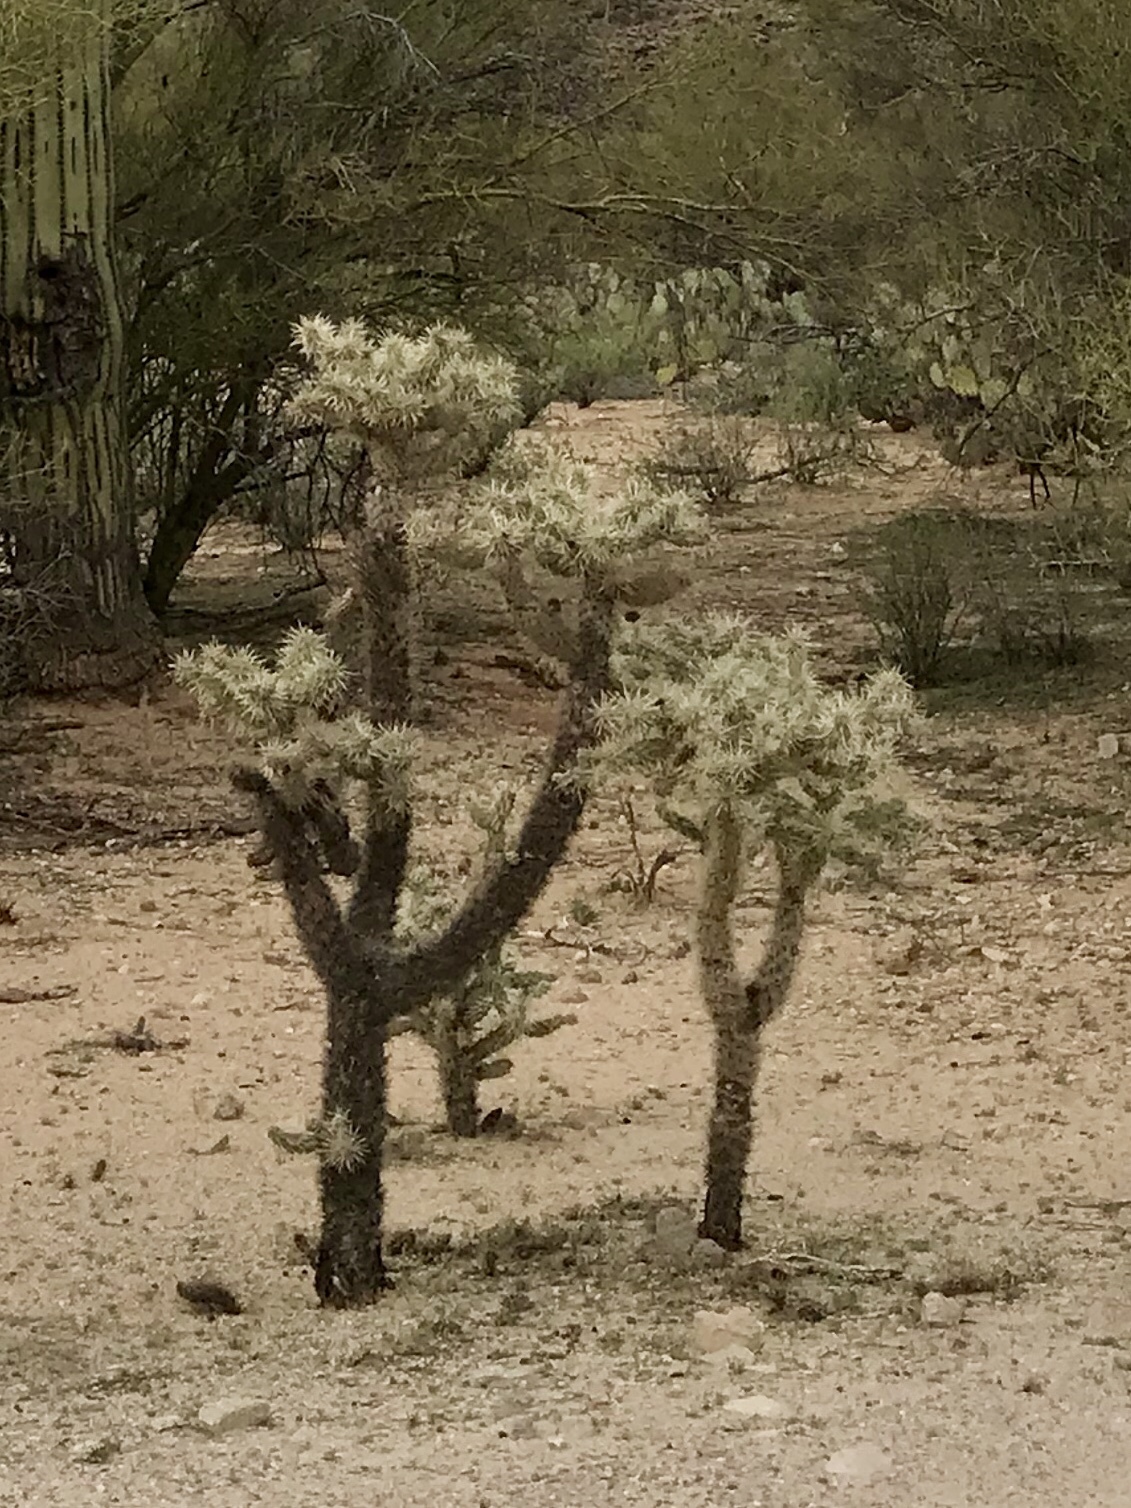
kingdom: Plantae
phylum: Tracheophyta
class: Magnoliopsida
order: Caryophyllales
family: Cactaceae
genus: Cylindropuntia
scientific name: Cylindropuntia fulgida
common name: Jumping cholla
